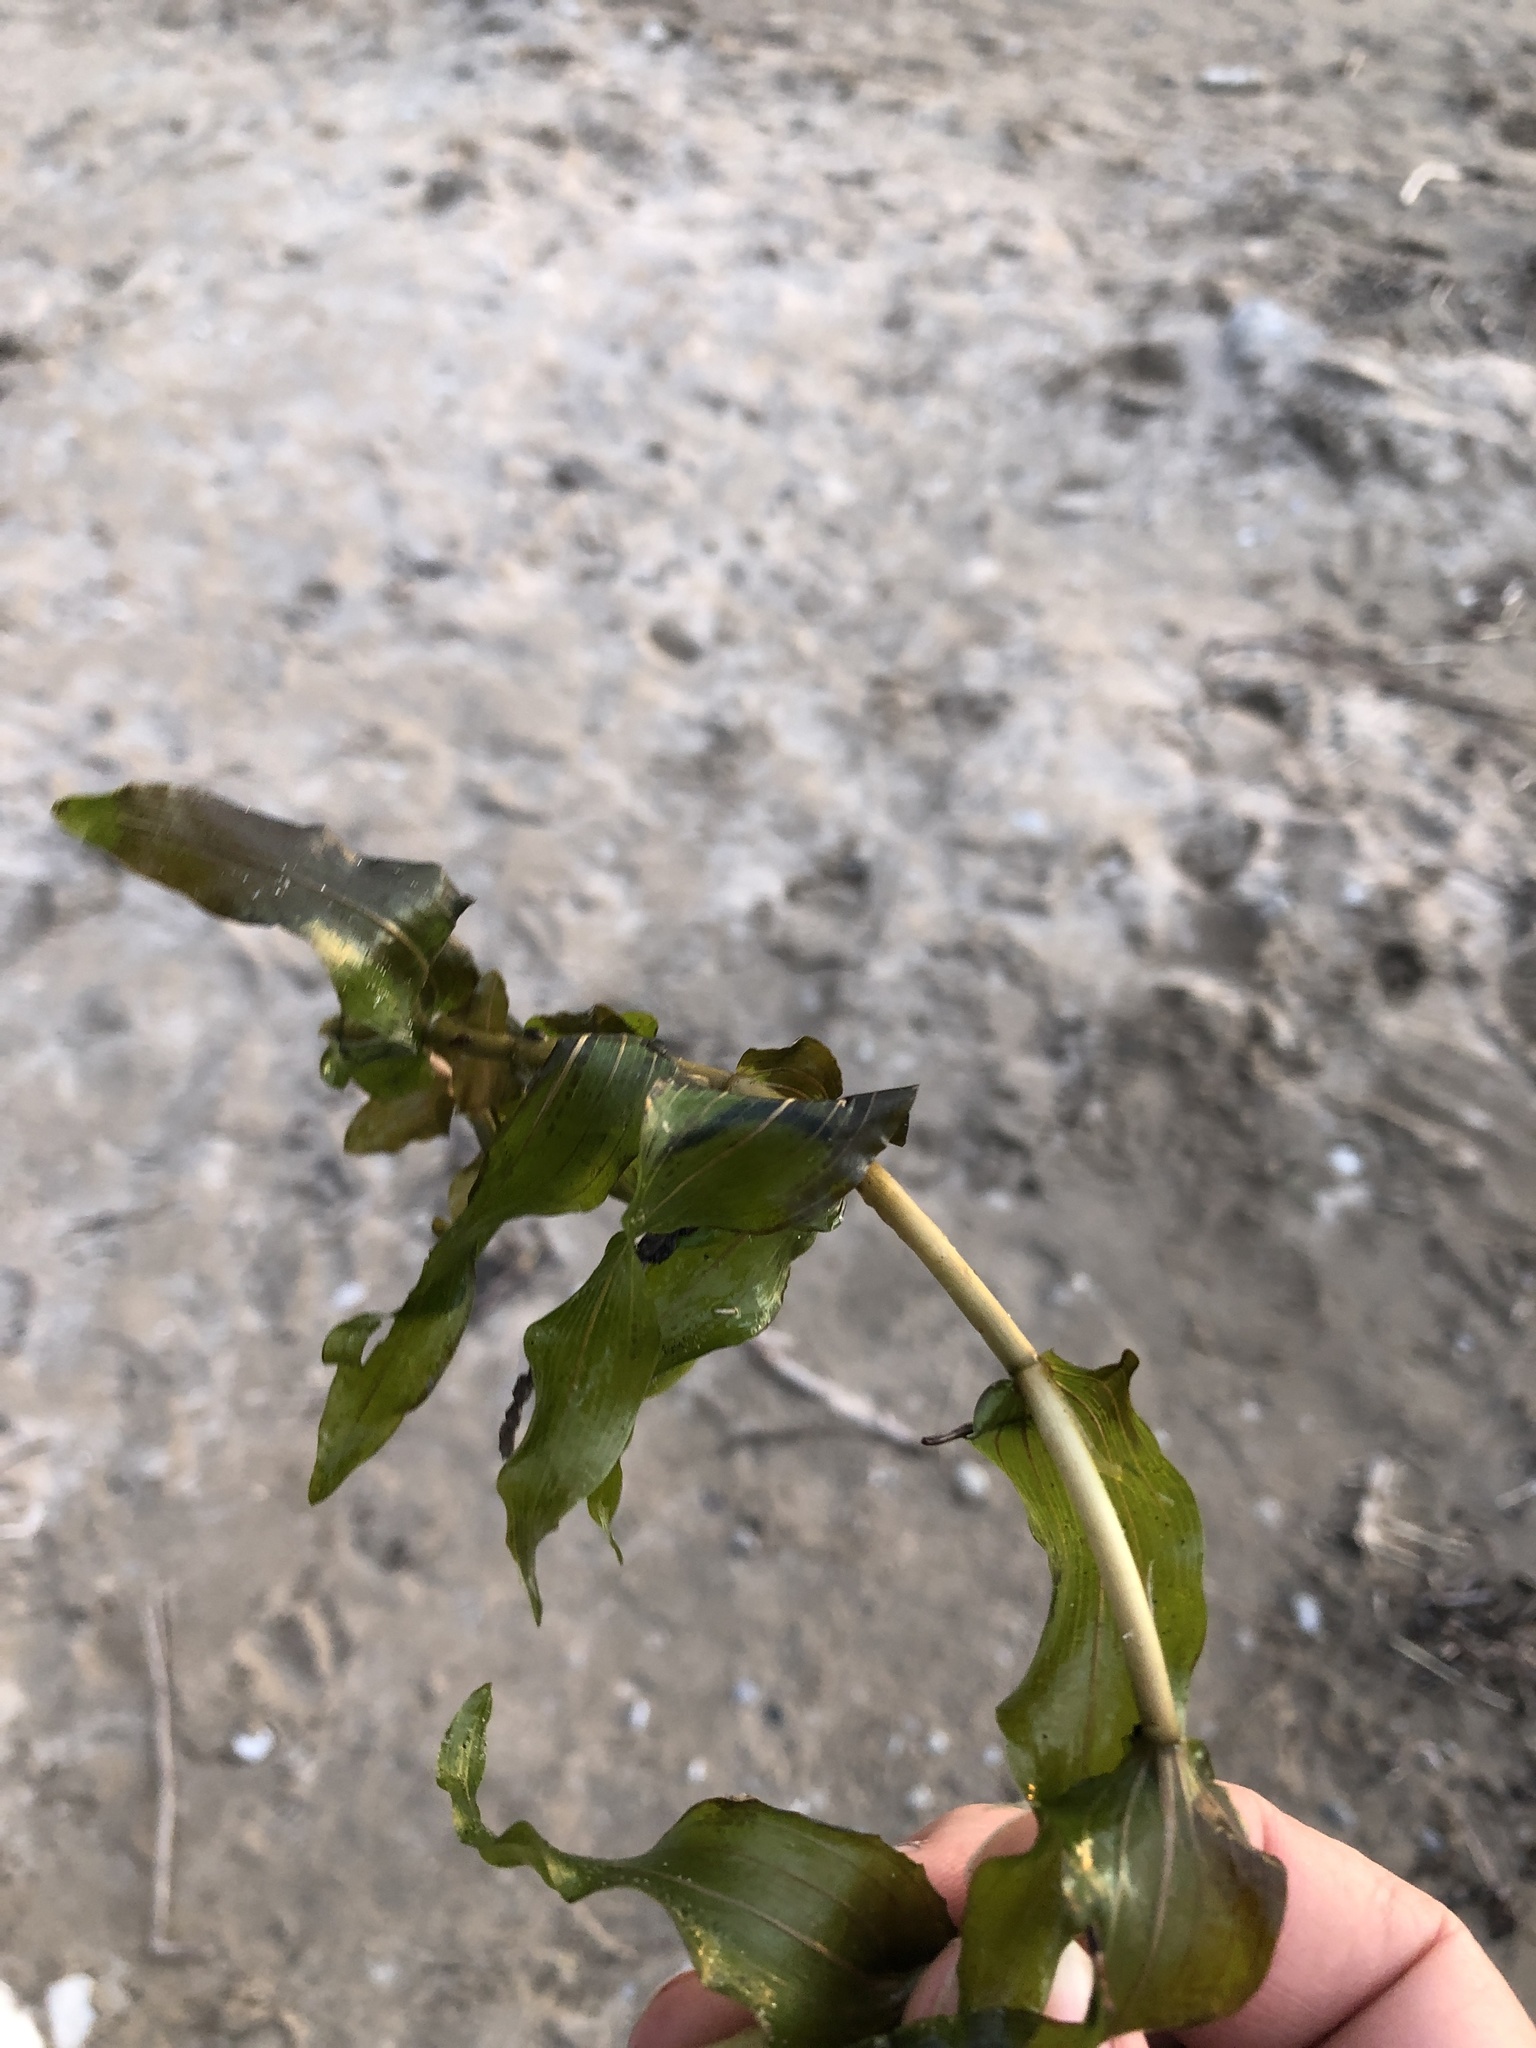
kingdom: Plantae
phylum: Tracheophyta
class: Liliopsida
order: Alismatales
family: Potamogetonaceae
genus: Potamogeton
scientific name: Potamogeton richardsonii
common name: Richardson's pondweed
